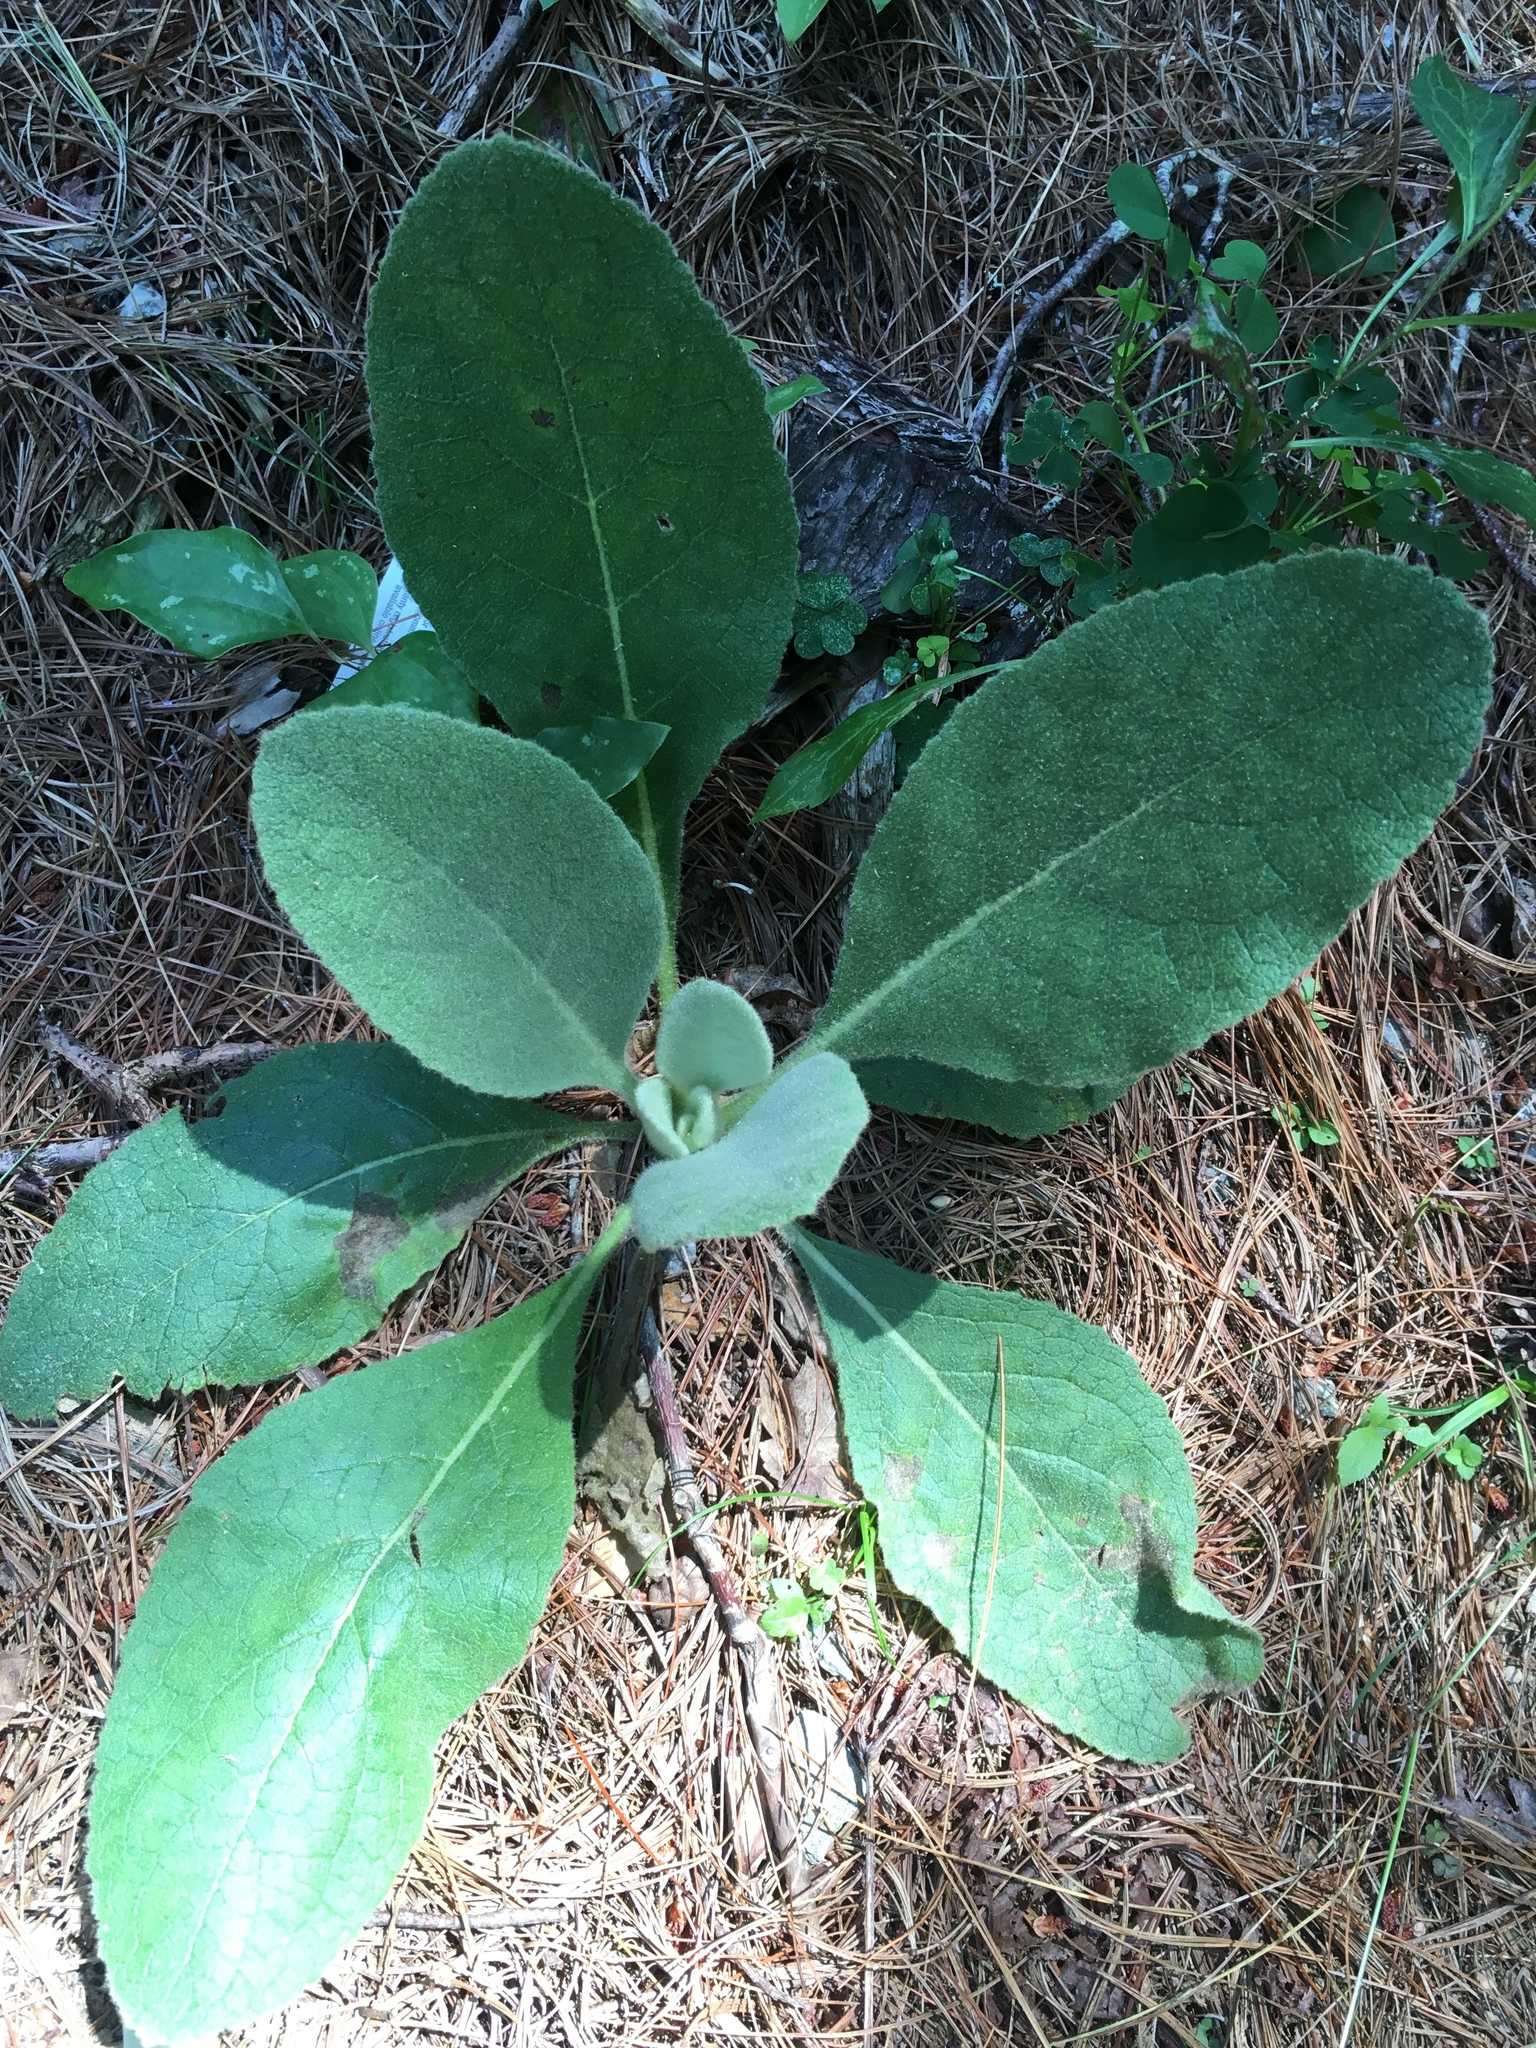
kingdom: Plantae
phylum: Tracheophyta
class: Magnoliopsida
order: Lamiales
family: Scrophulariaceae
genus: Verbascum
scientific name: Verbascum thapsus
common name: Common mullein
